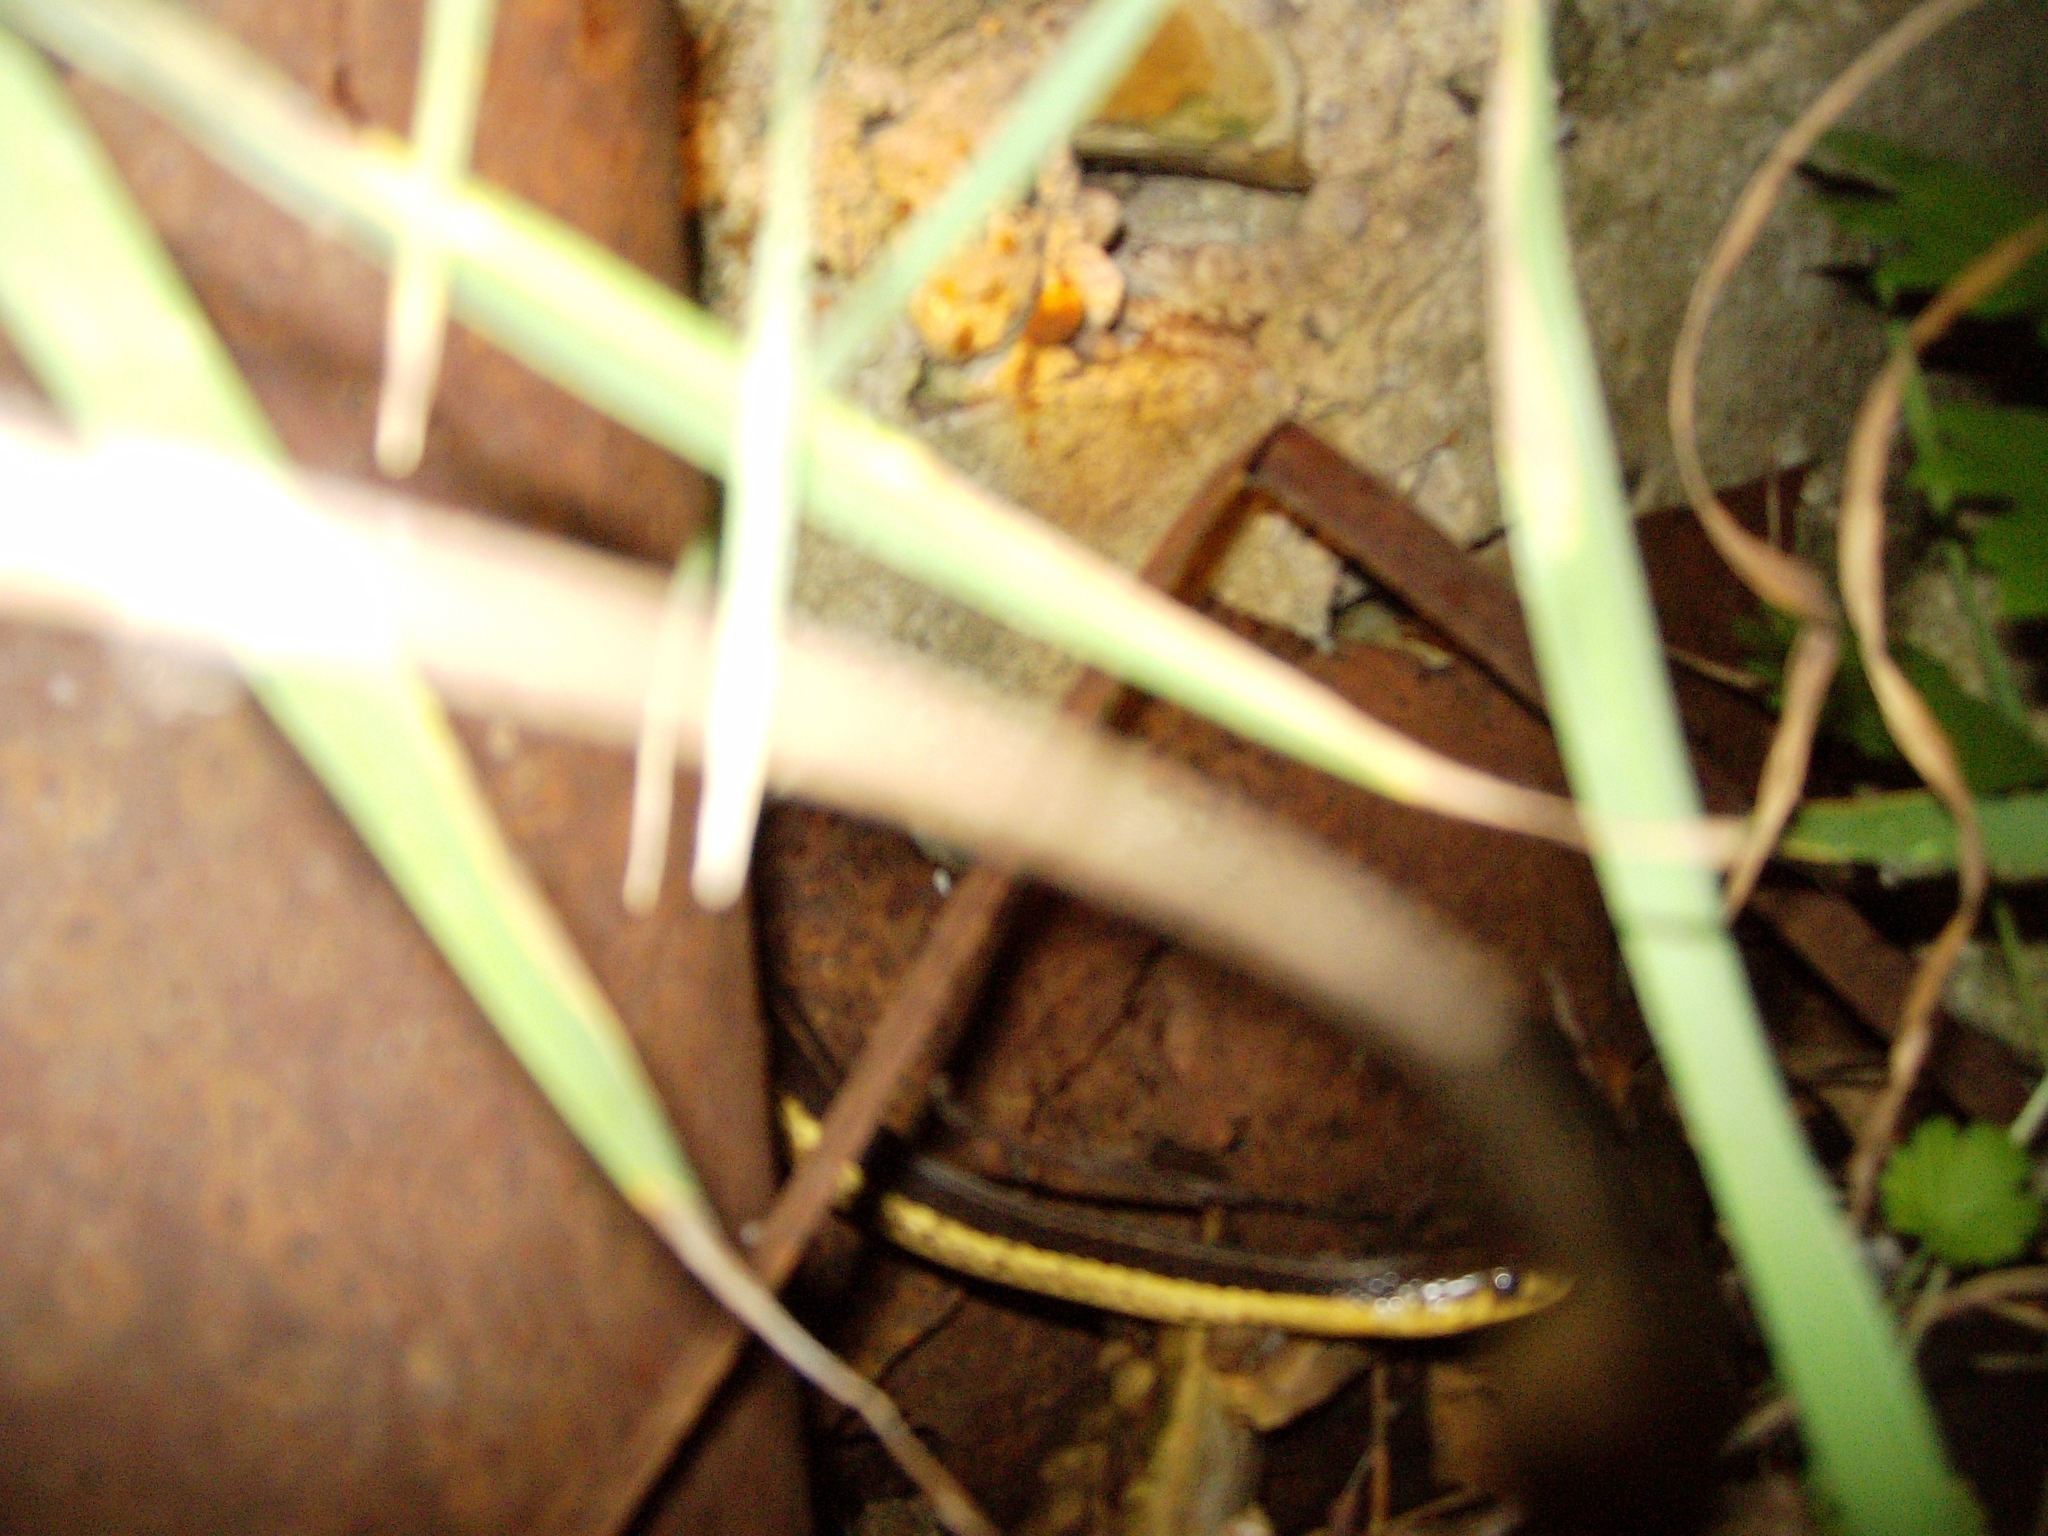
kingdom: Animalia
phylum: Chordata
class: Squamata
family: Colubridae
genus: Thamnophis
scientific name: Thamnophis sirtalis
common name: Common garter snake
